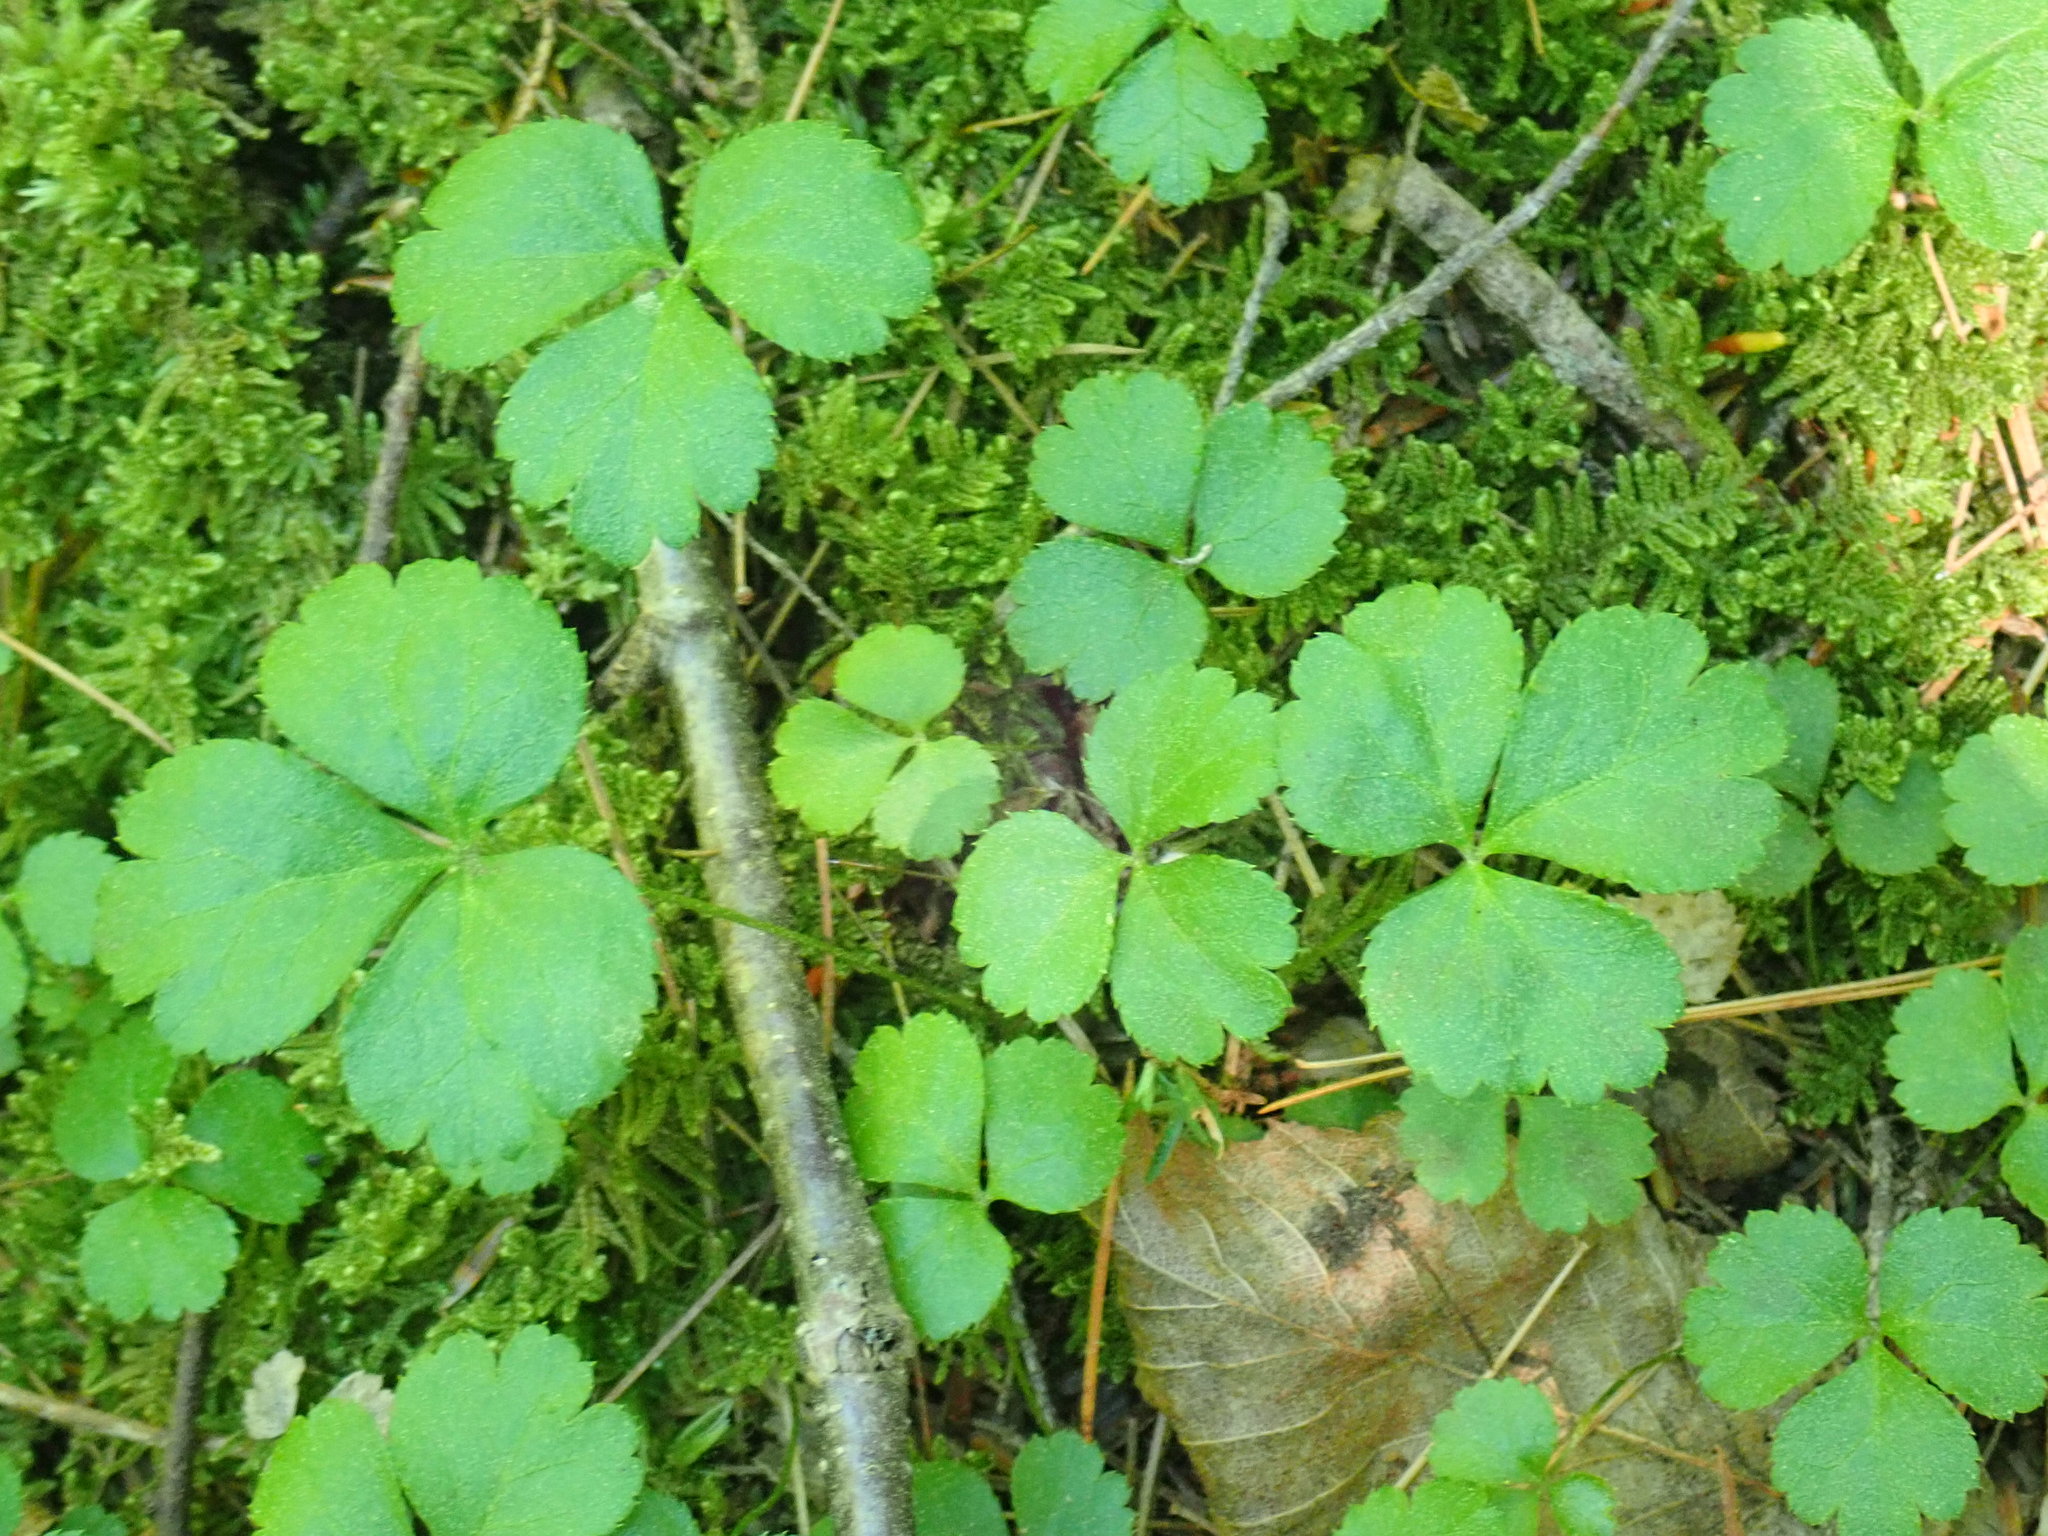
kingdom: Plantae
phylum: Tracheophyta
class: Magnoliopsida
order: Ranunculales
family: Ranunculaceae
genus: Coptis
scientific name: Coptis trifolia
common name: Canker-root
